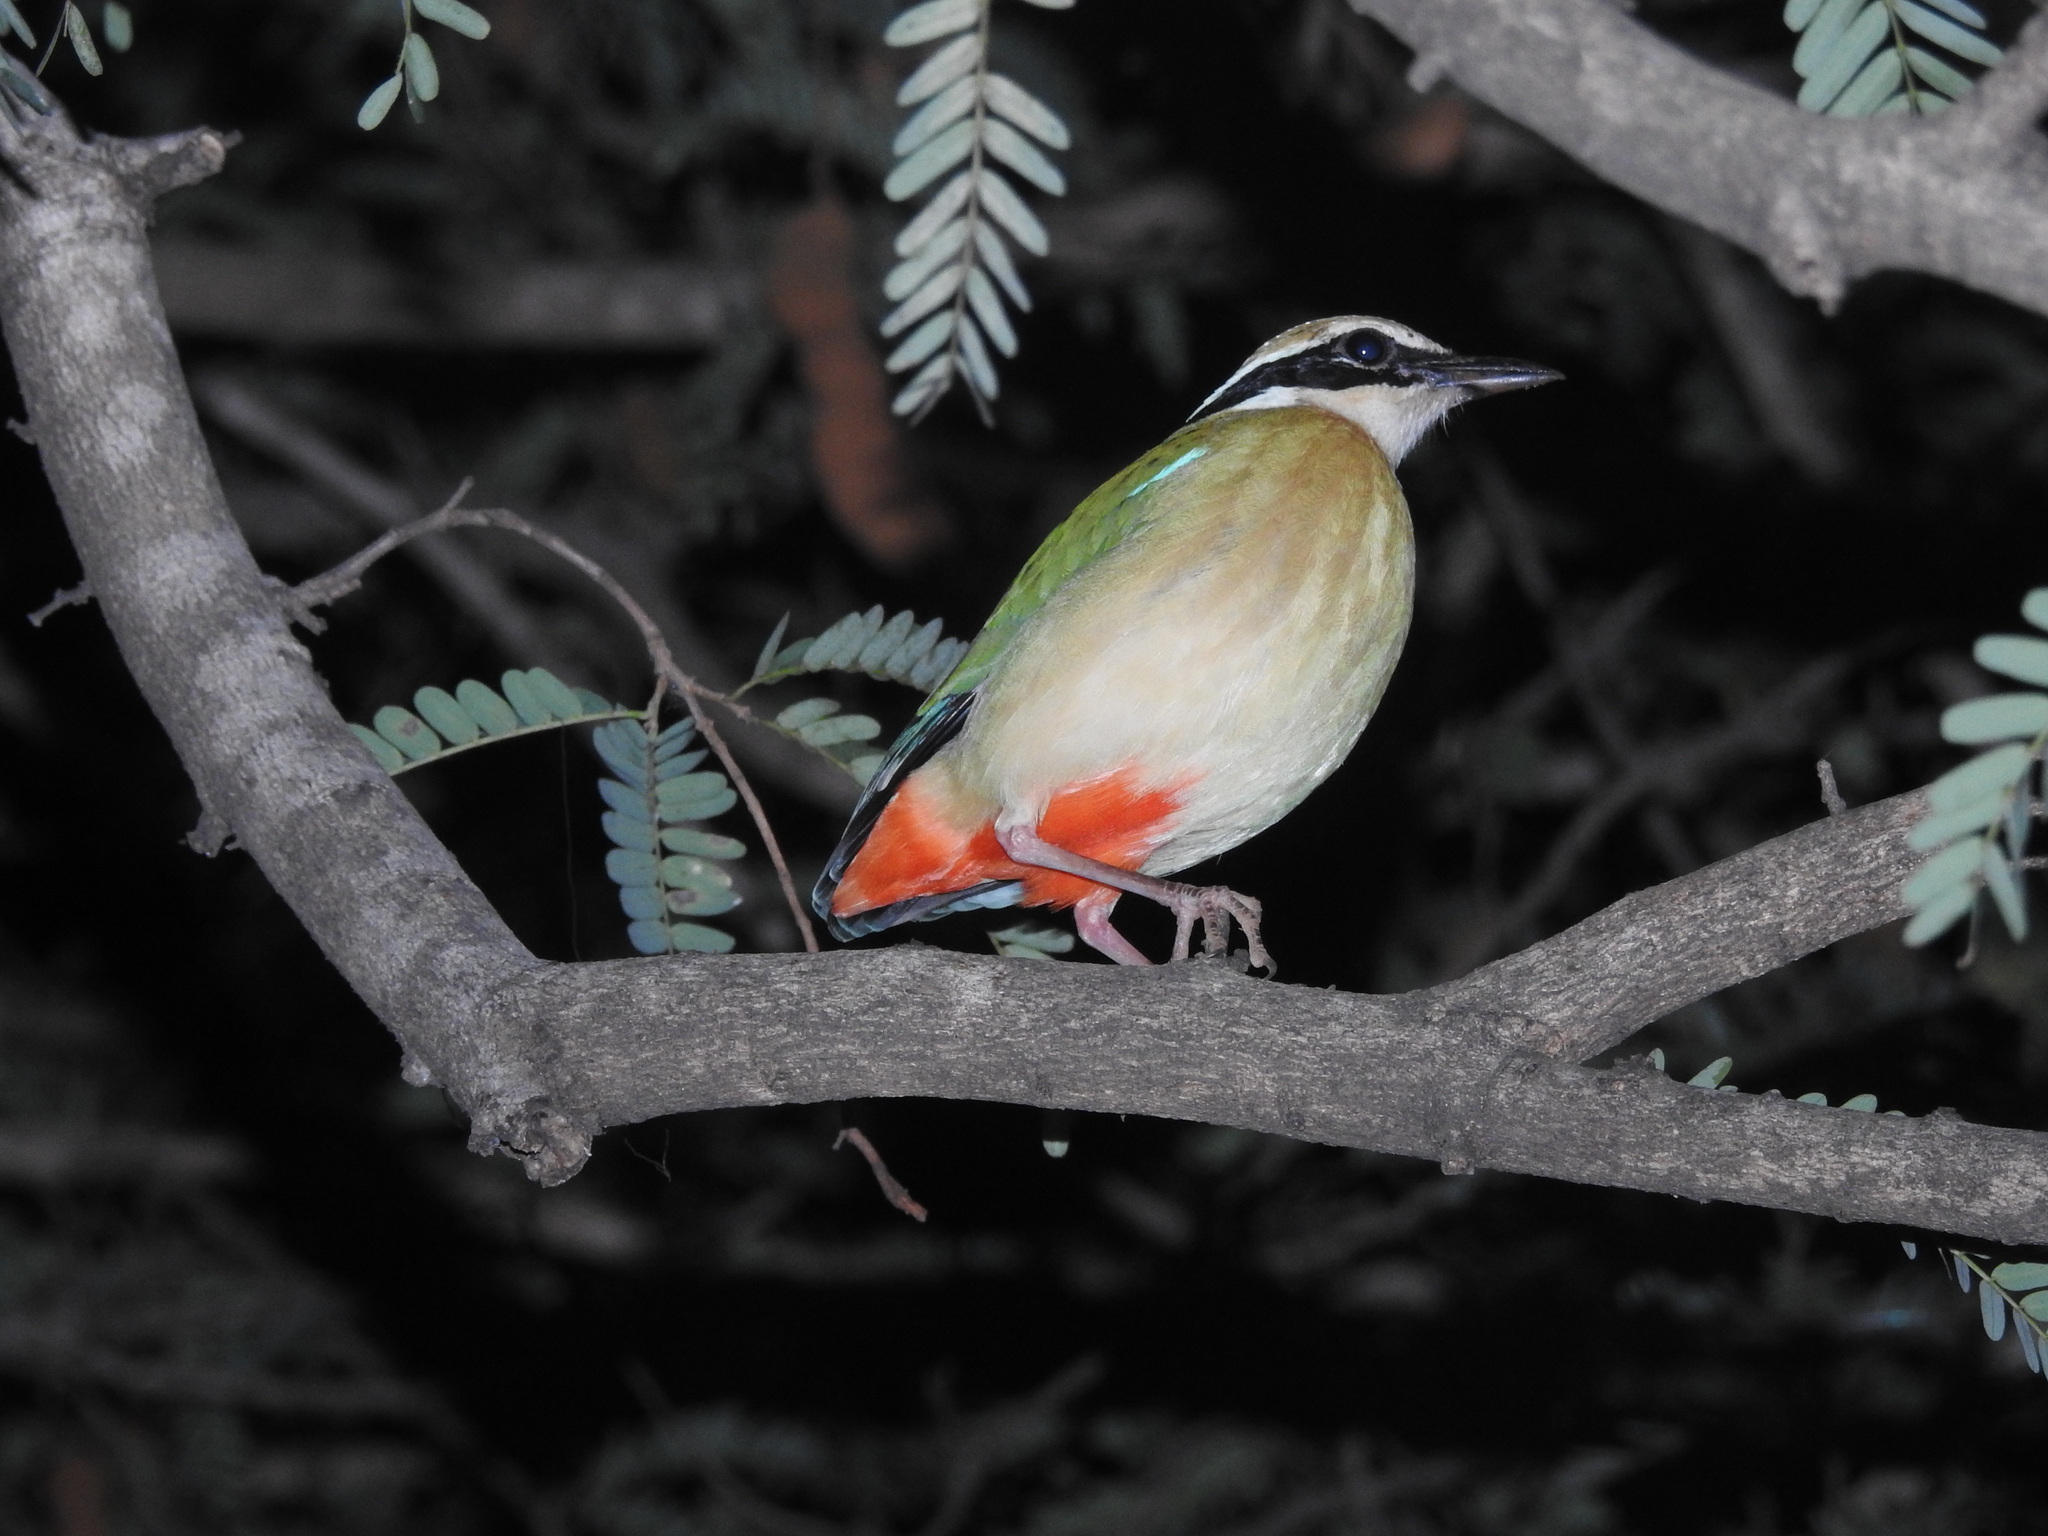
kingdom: Animalia
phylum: Chordata
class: Aves
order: Passeriformes
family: Pittidae
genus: Pitta
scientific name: Pitta brachyura
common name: Indian pitta
